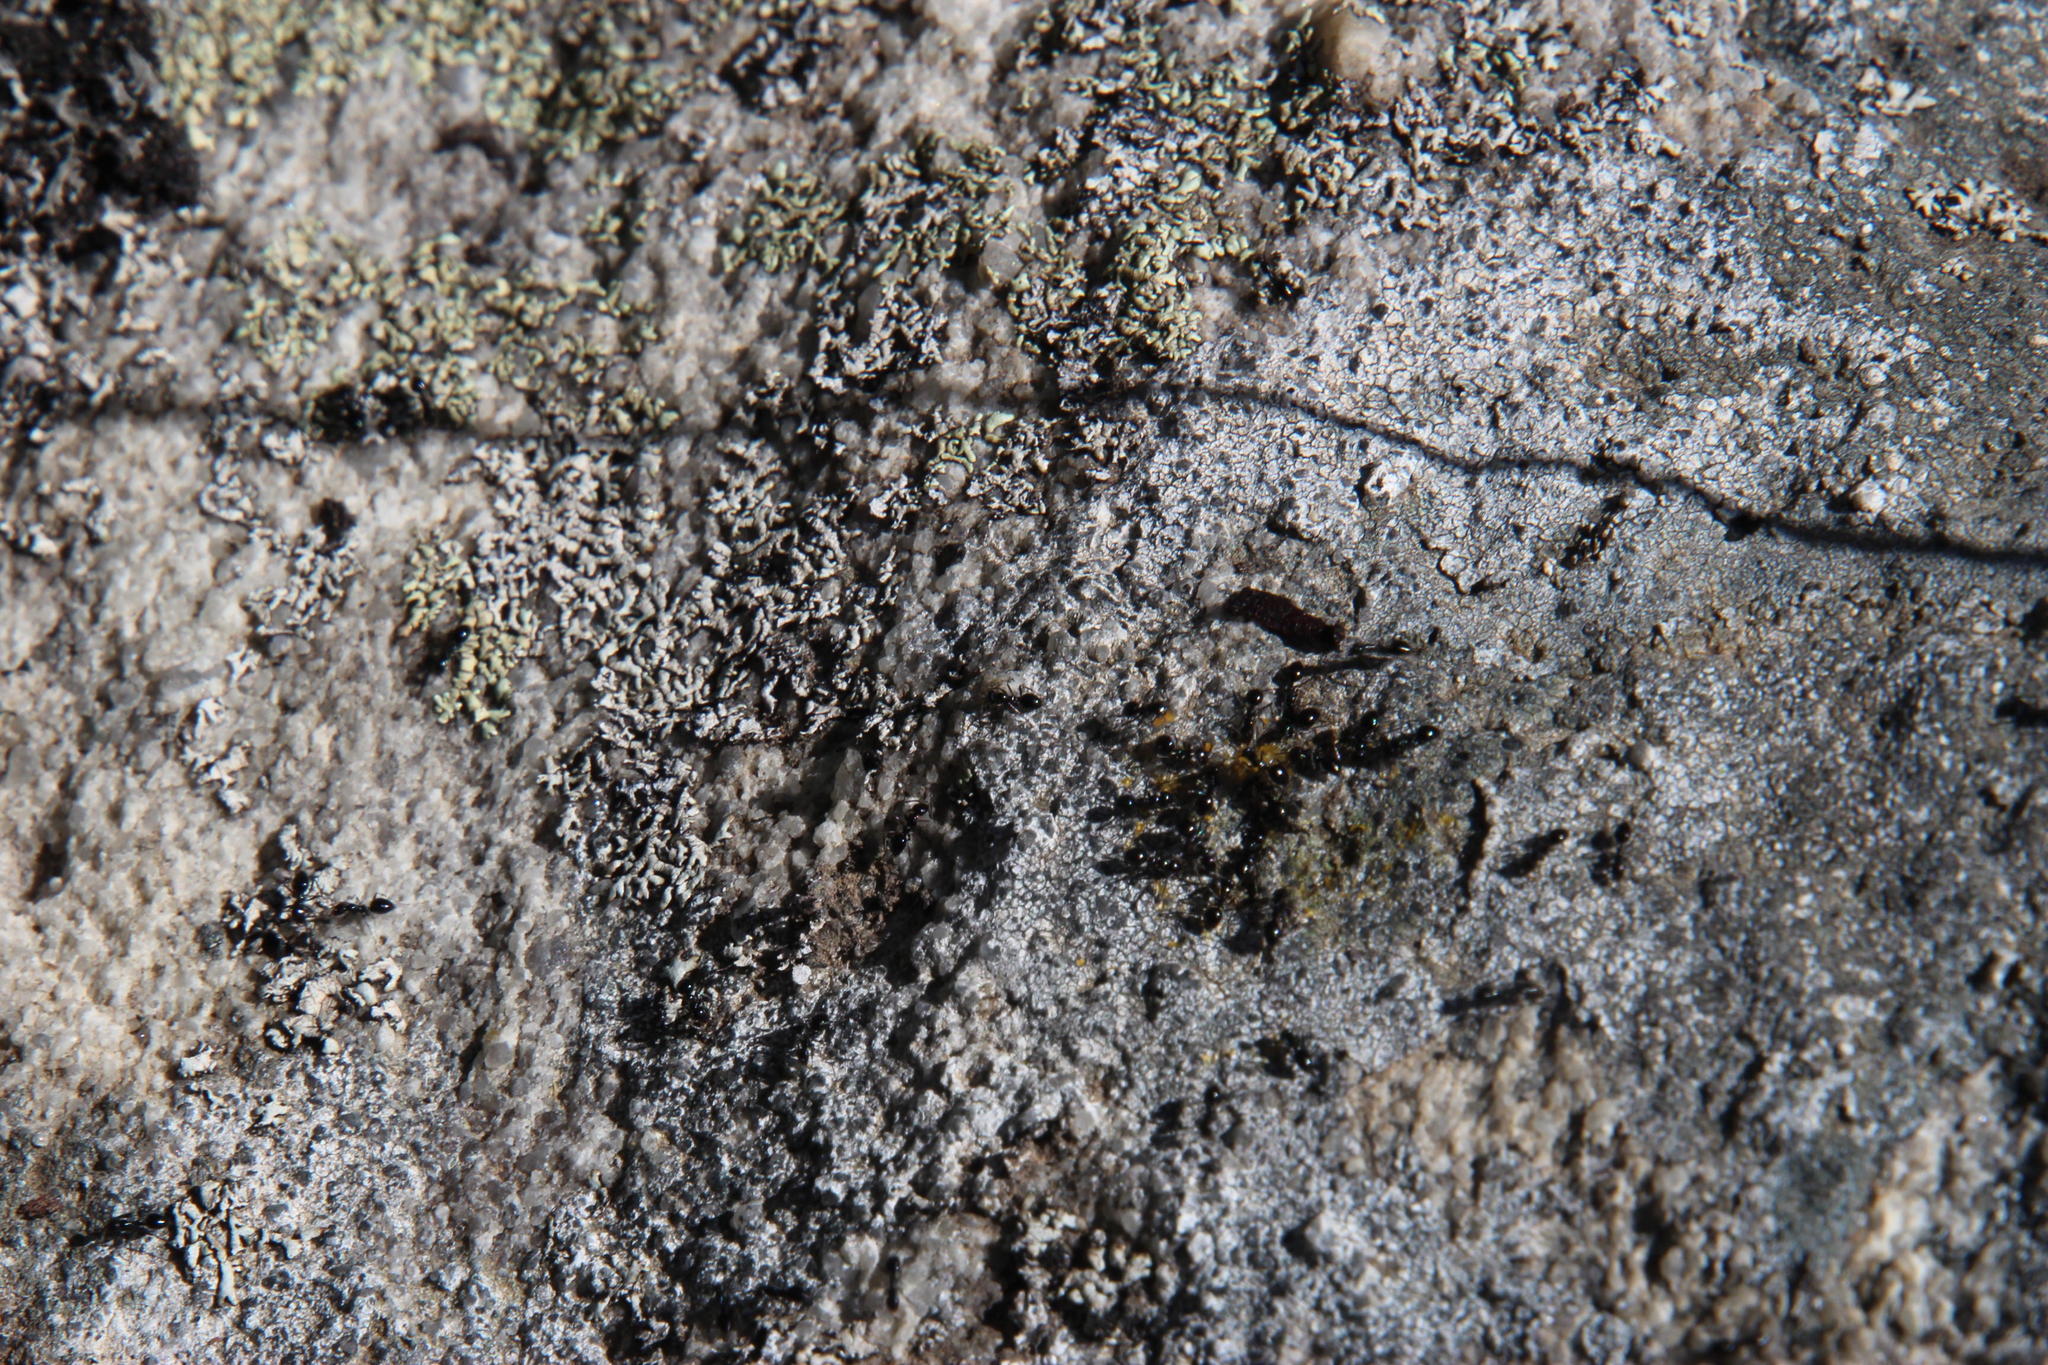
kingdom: Animalia
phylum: Arthropoda
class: Insecta
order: Hymenoptera
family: Formicidae
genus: Lepisiota
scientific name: Lepisiota capensis
